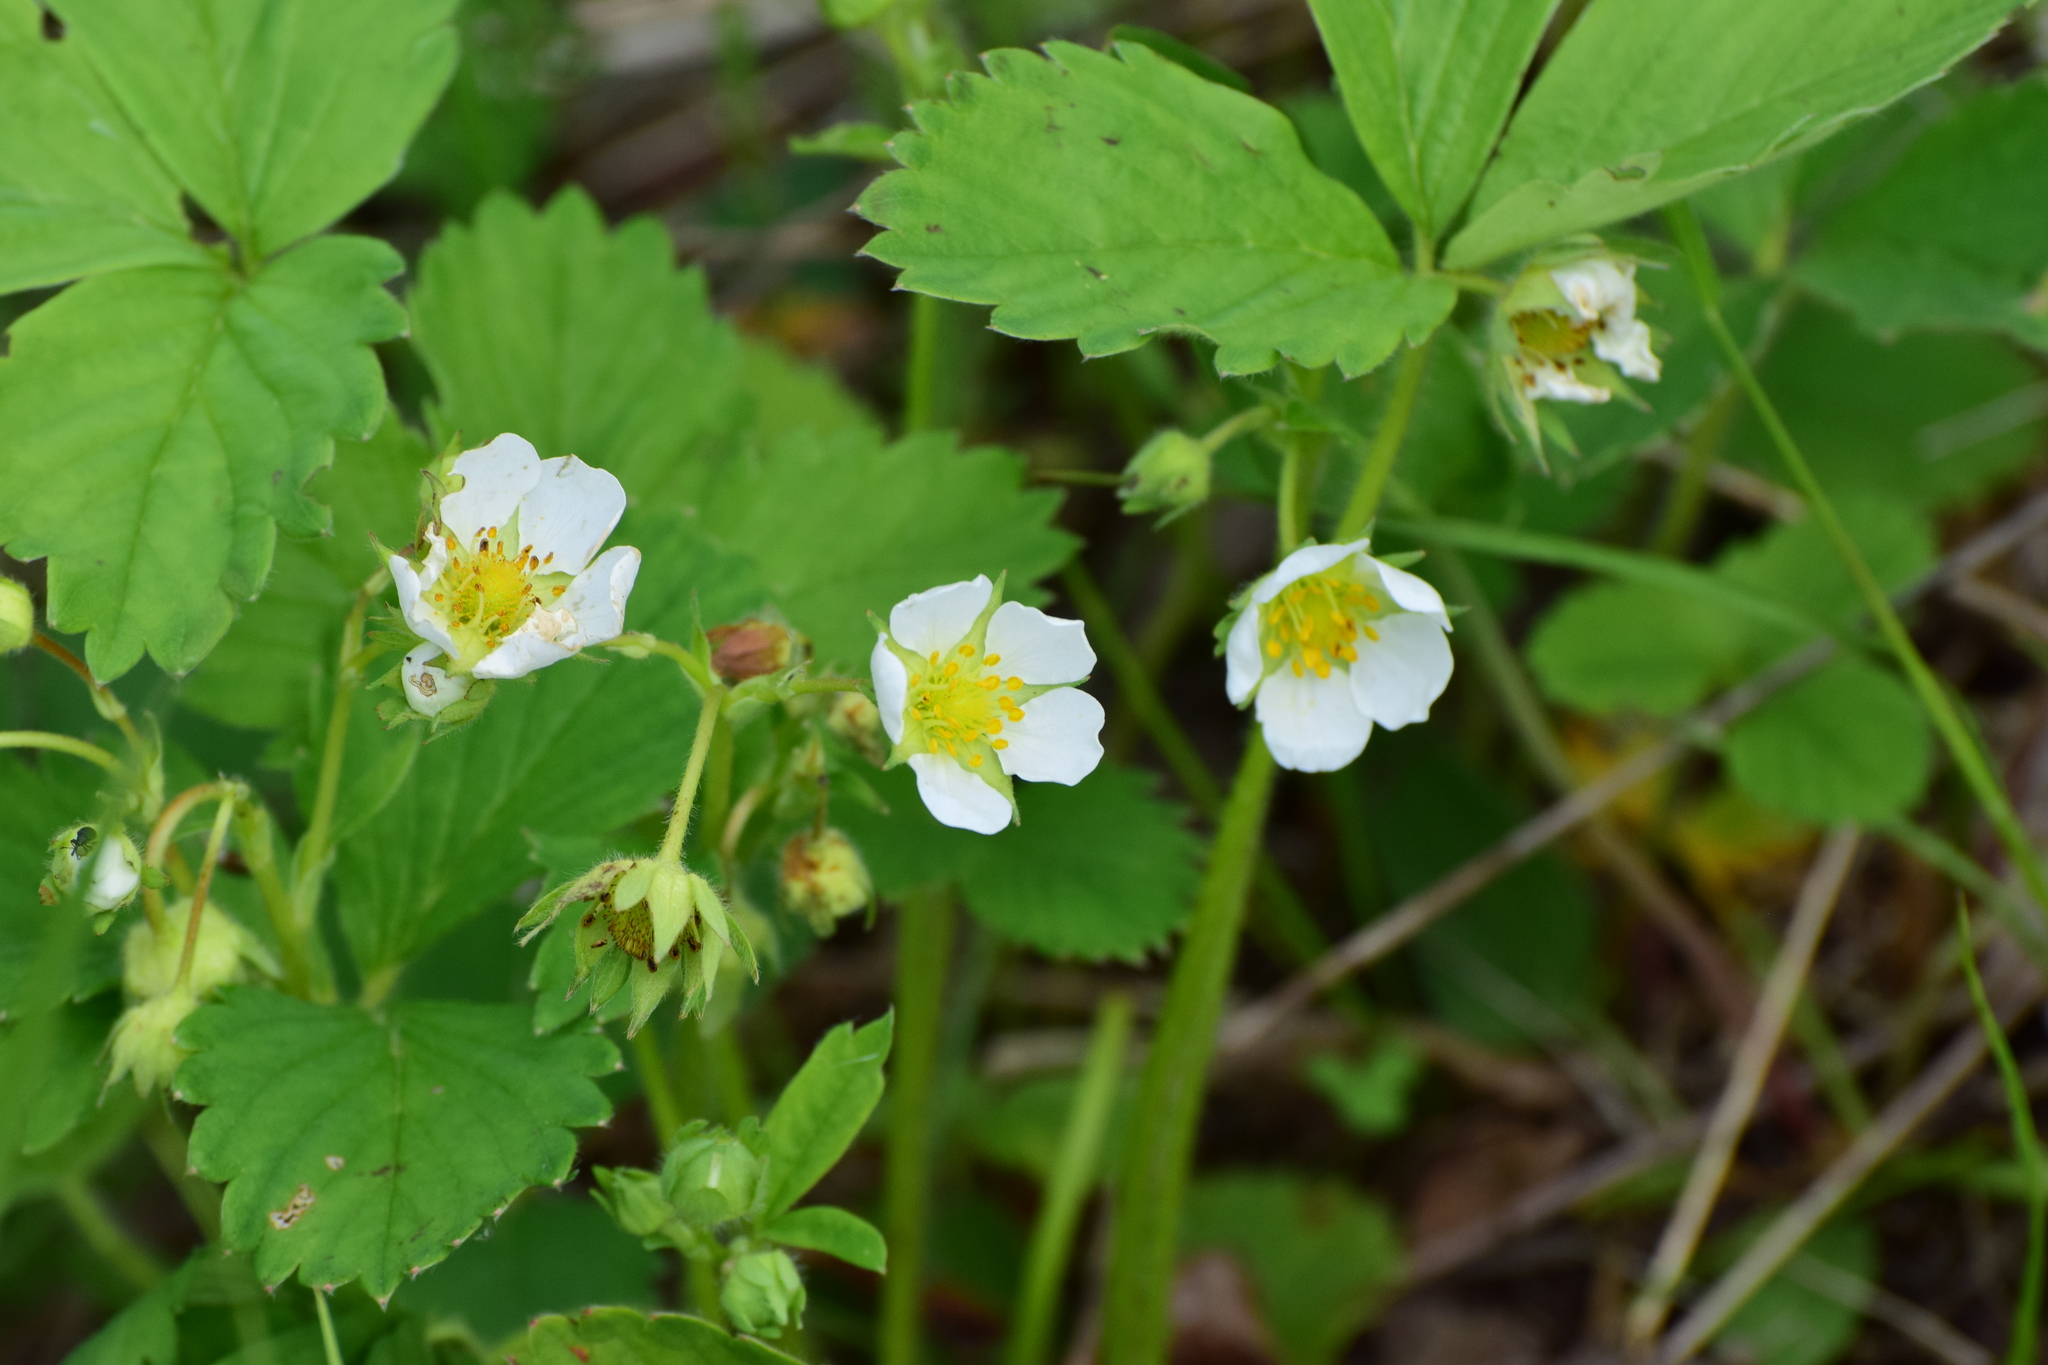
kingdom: Plantae
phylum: Tracheophyta
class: Magnoliopsida
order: Rosales
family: Rosaceae
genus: Fragaria
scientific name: Fragaria ananassa
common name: Garden strawberry
